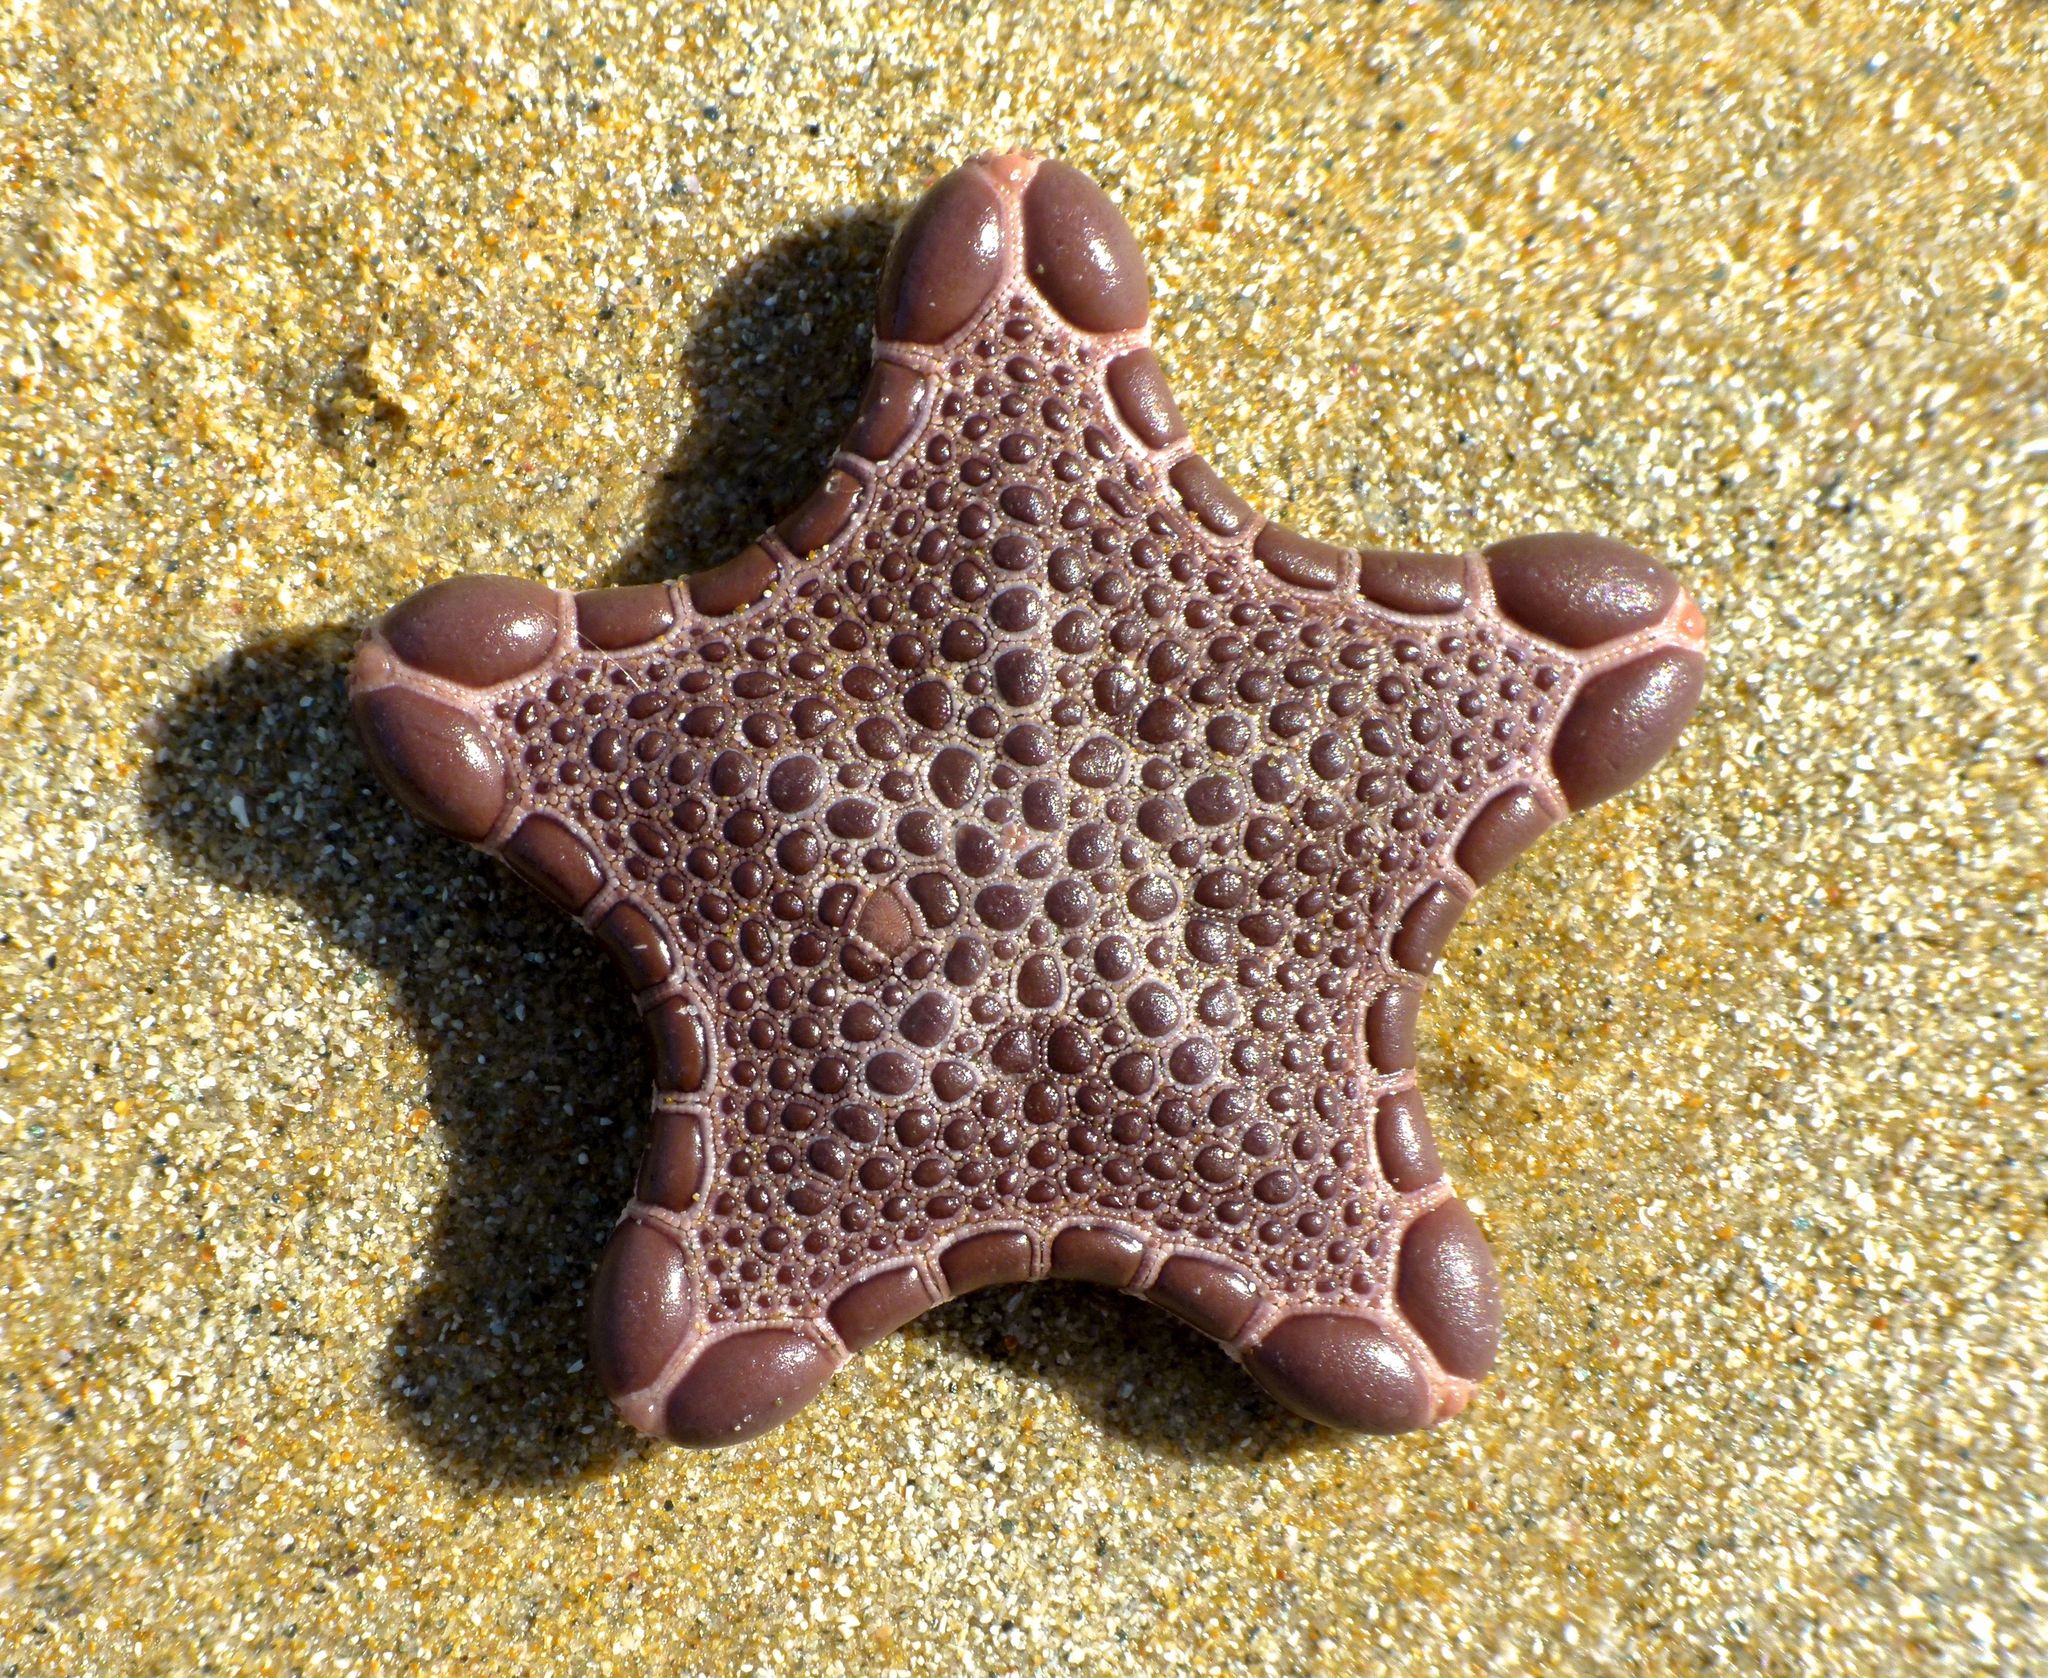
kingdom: Animalia
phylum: Echinodermata
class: Asteroidea
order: Valvatida
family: Goniasteridae
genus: Pentagonaster
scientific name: Pentagonaster pulchellus
